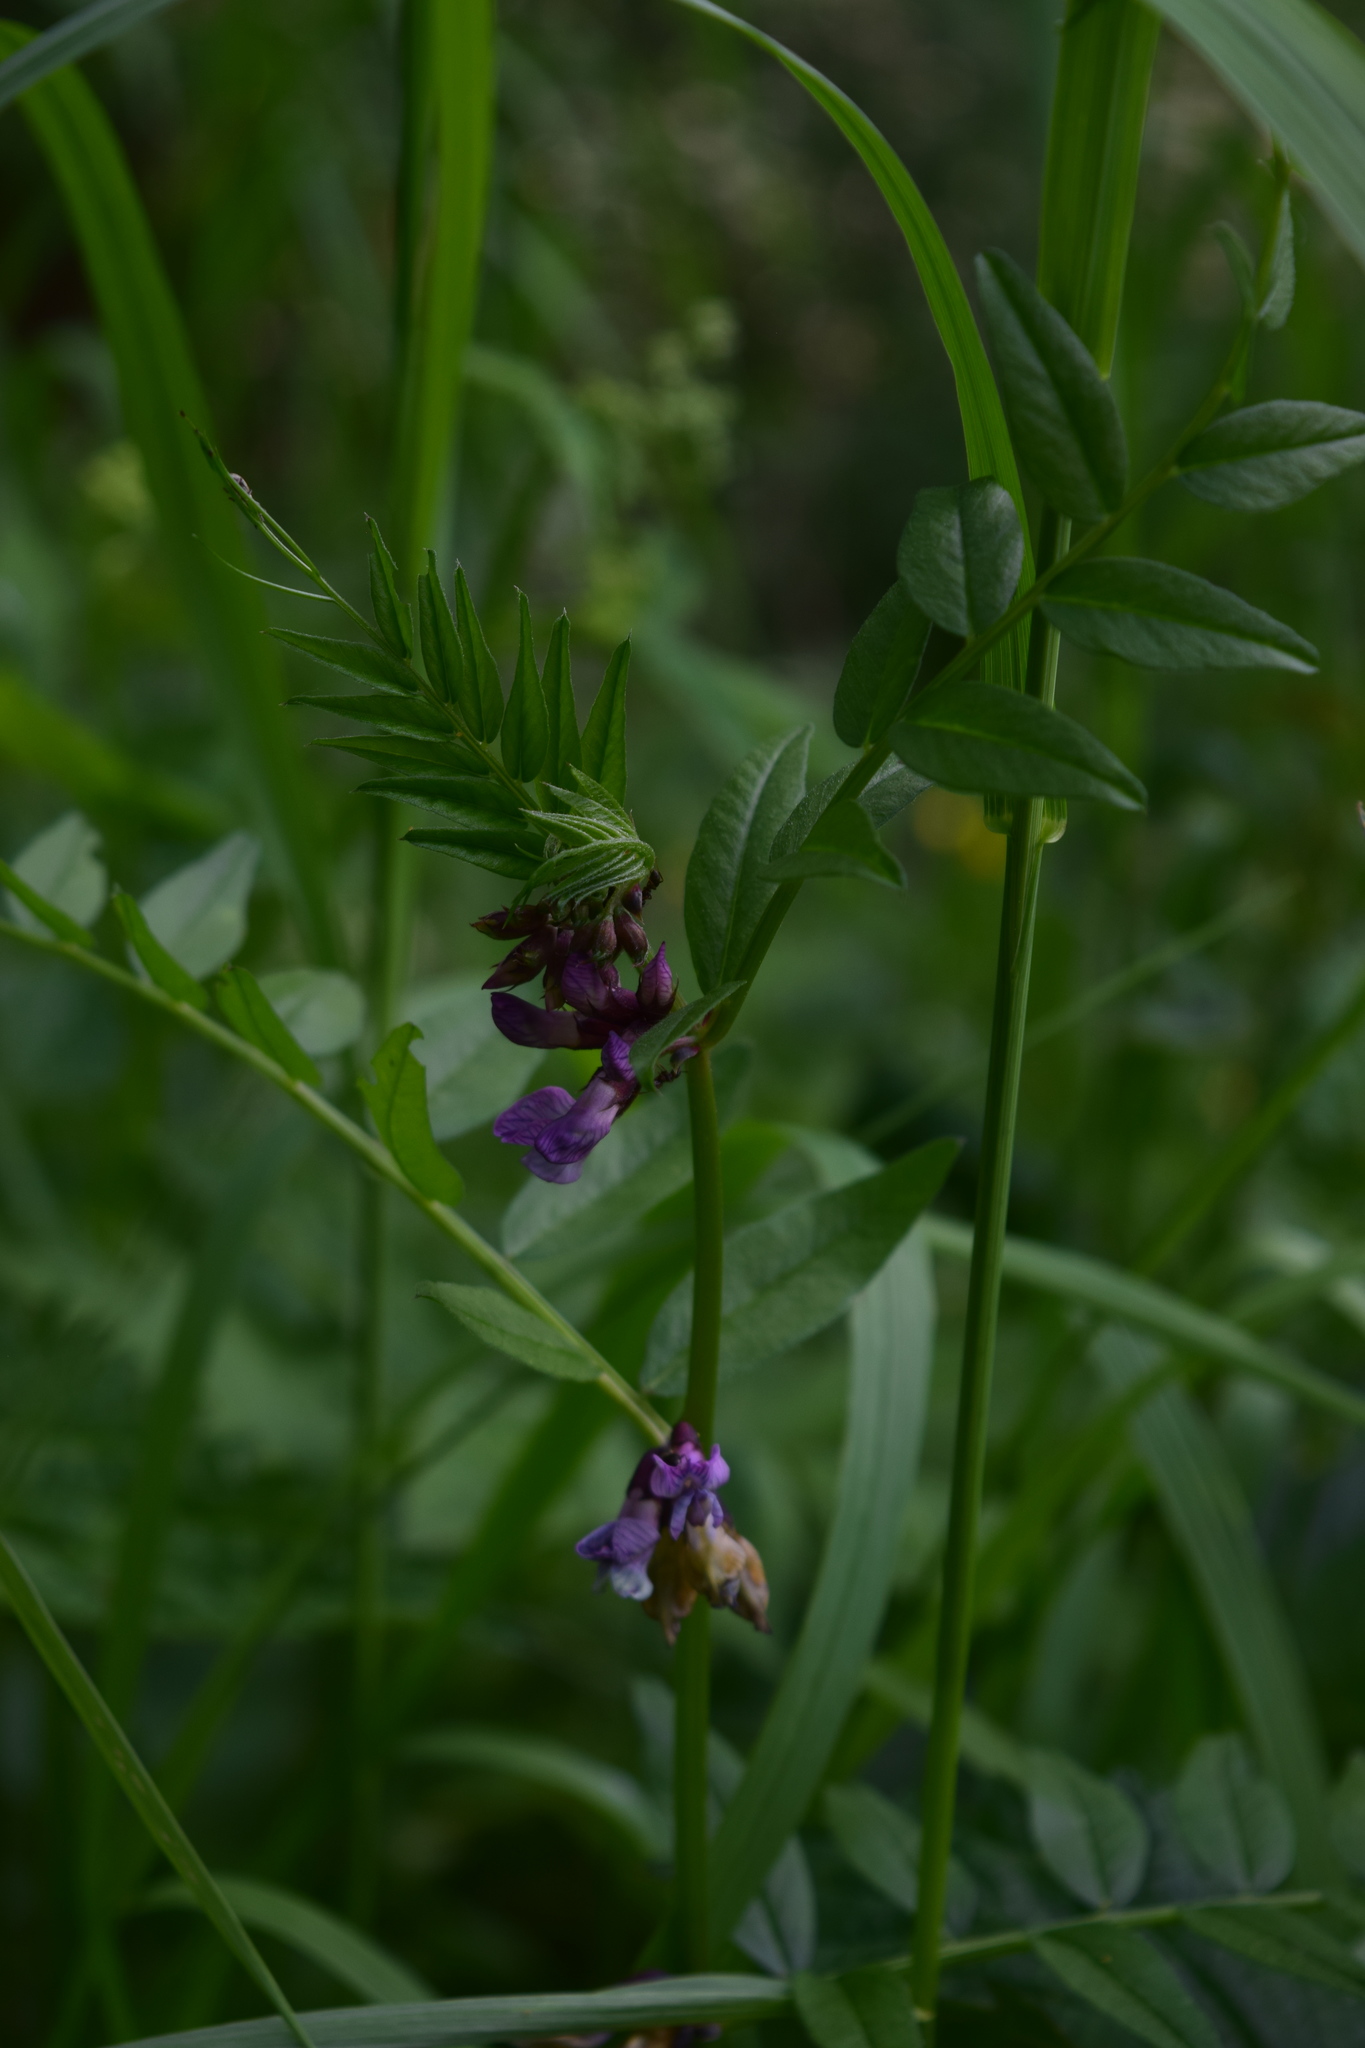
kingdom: Plantae
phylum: Tracheophyta
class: Magnoliopsida
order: Fabales
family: Fabaceae
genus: Vicia
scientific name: Vicia sepium
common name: Bush vetch
